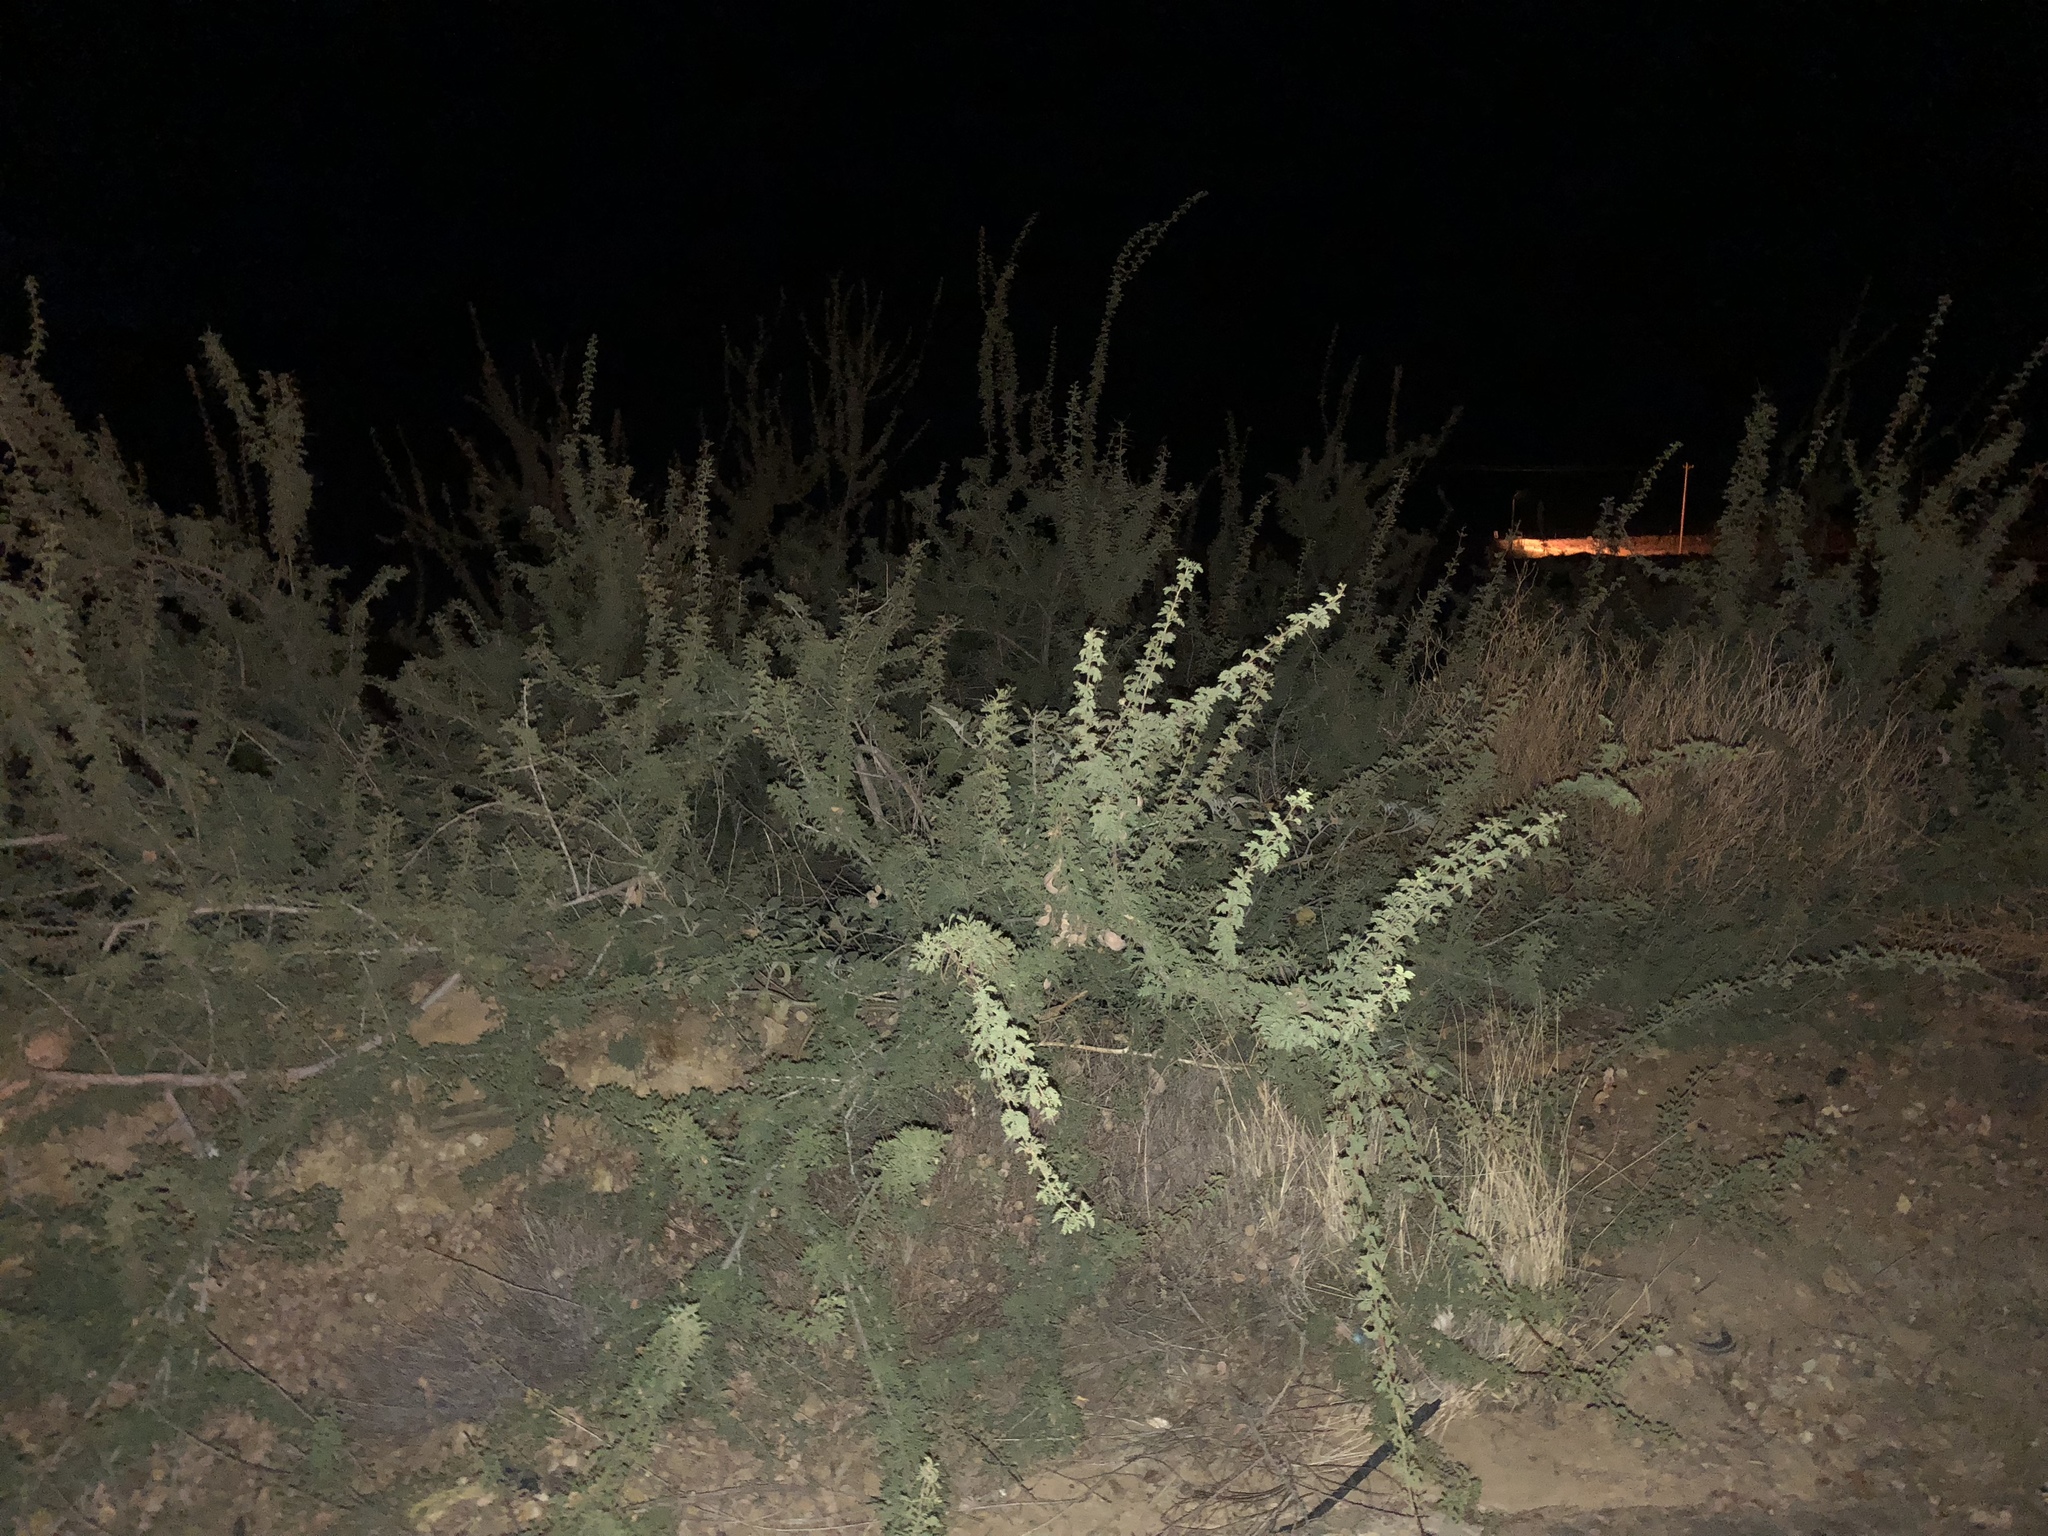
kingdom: Plantae
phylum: Tracheophyta
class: Magnoliopsida
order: Fabales
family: Fabaceae
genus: Senegalia
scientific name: Senegalia greggii
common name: Texas-mimosa
